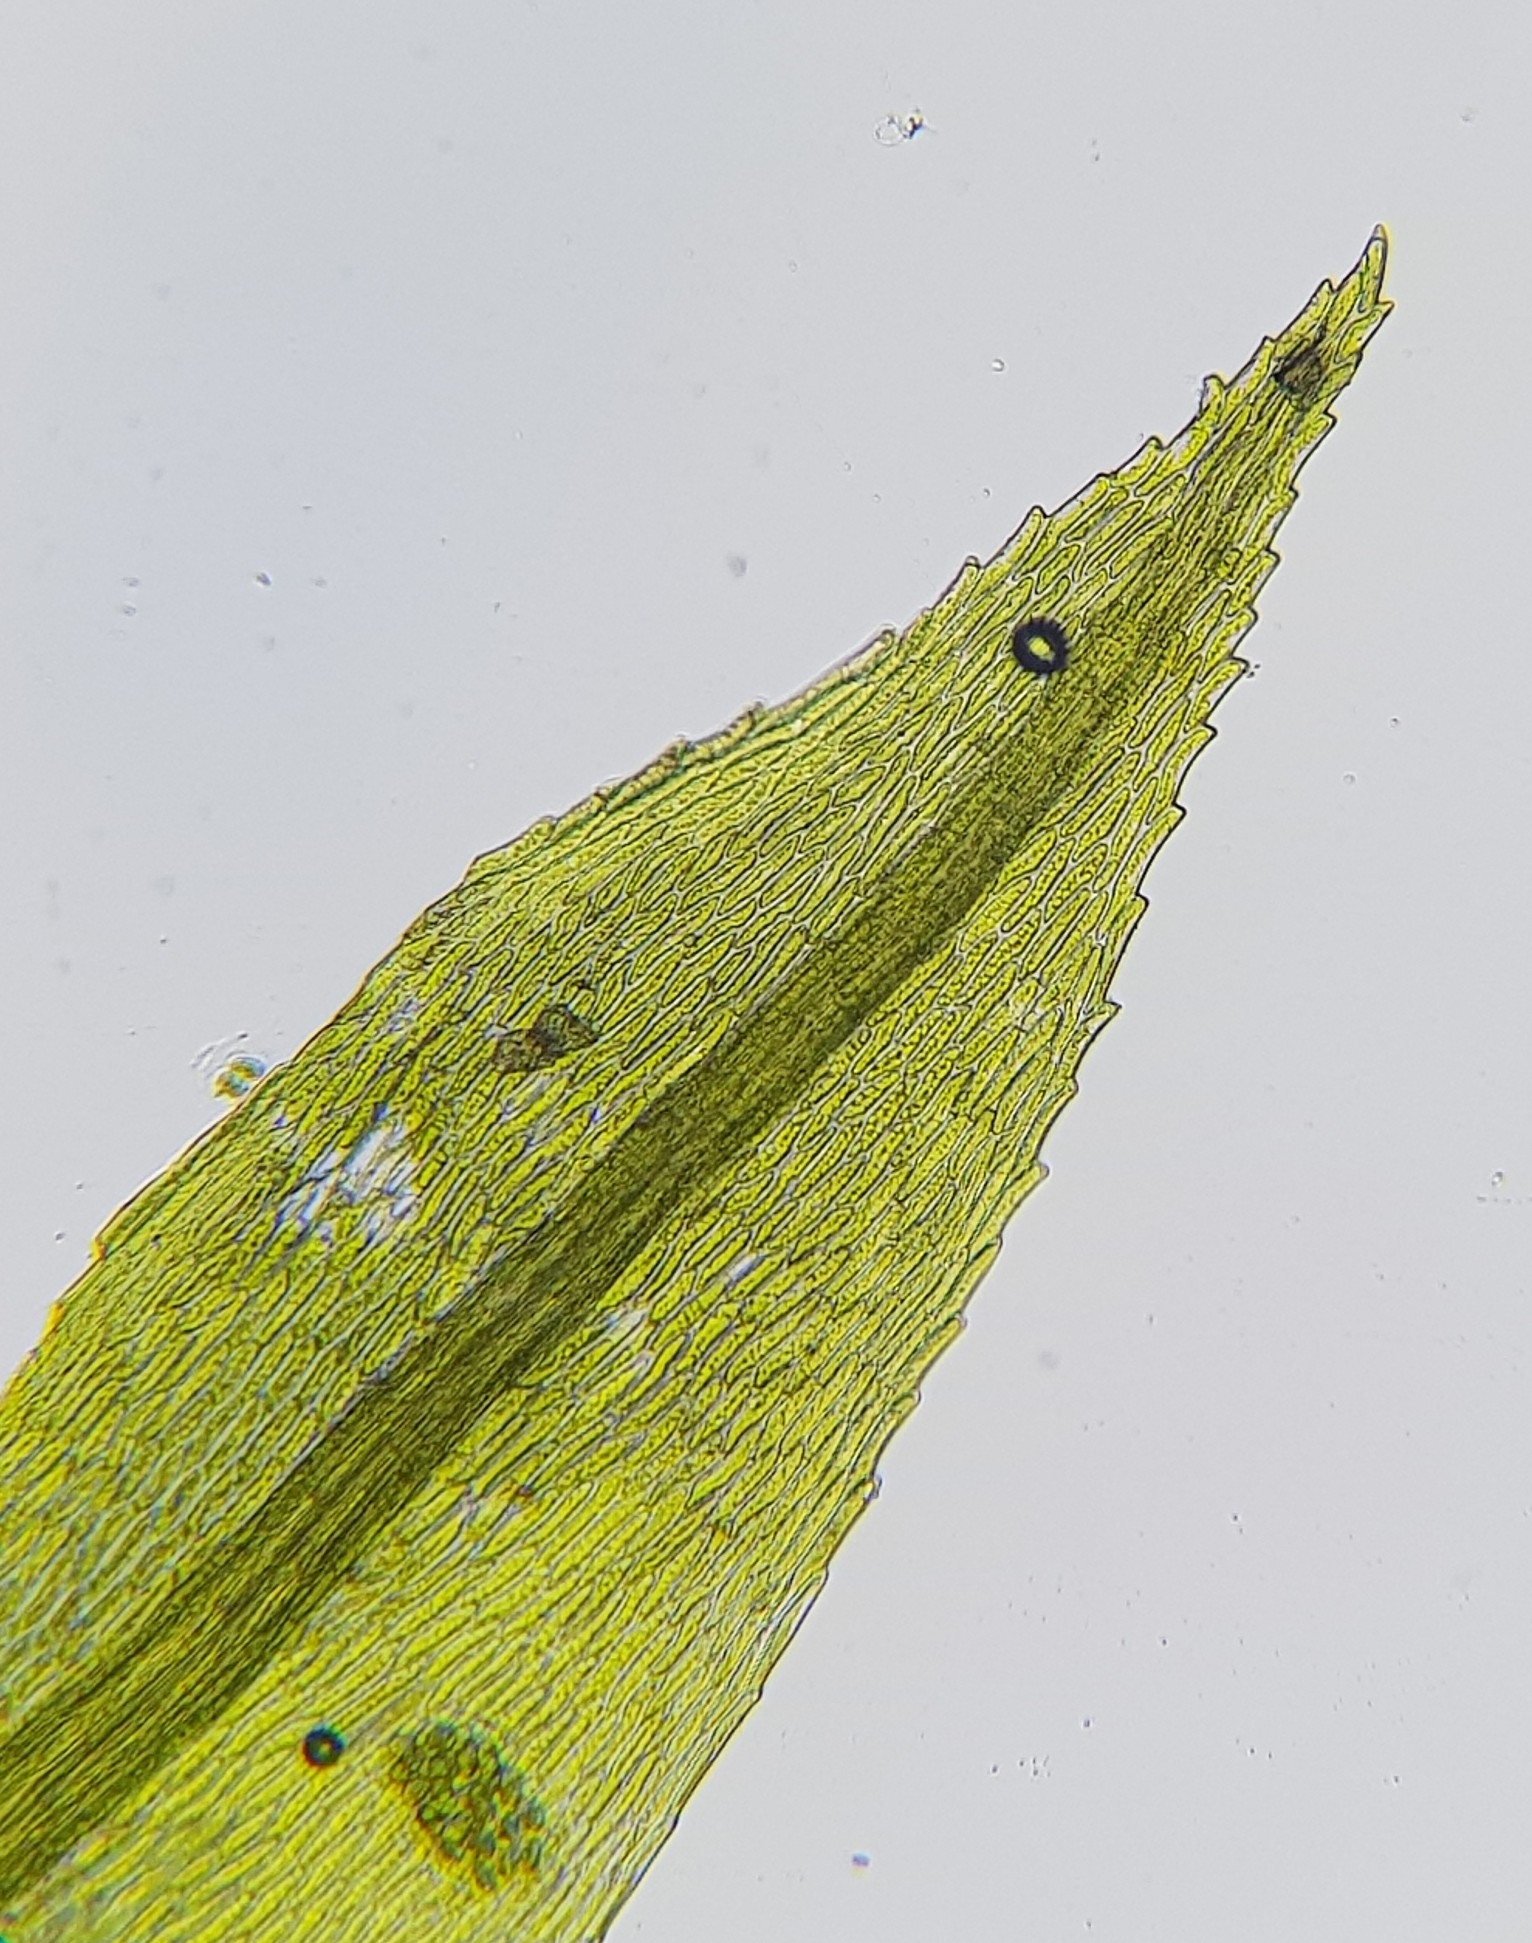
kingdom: Plantae
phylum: Bryophyta
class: Bryopsida
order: Bryales
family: Mniaceae
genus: Pohlia
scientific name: Pohlia nutans
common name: Nodding thread-moss
